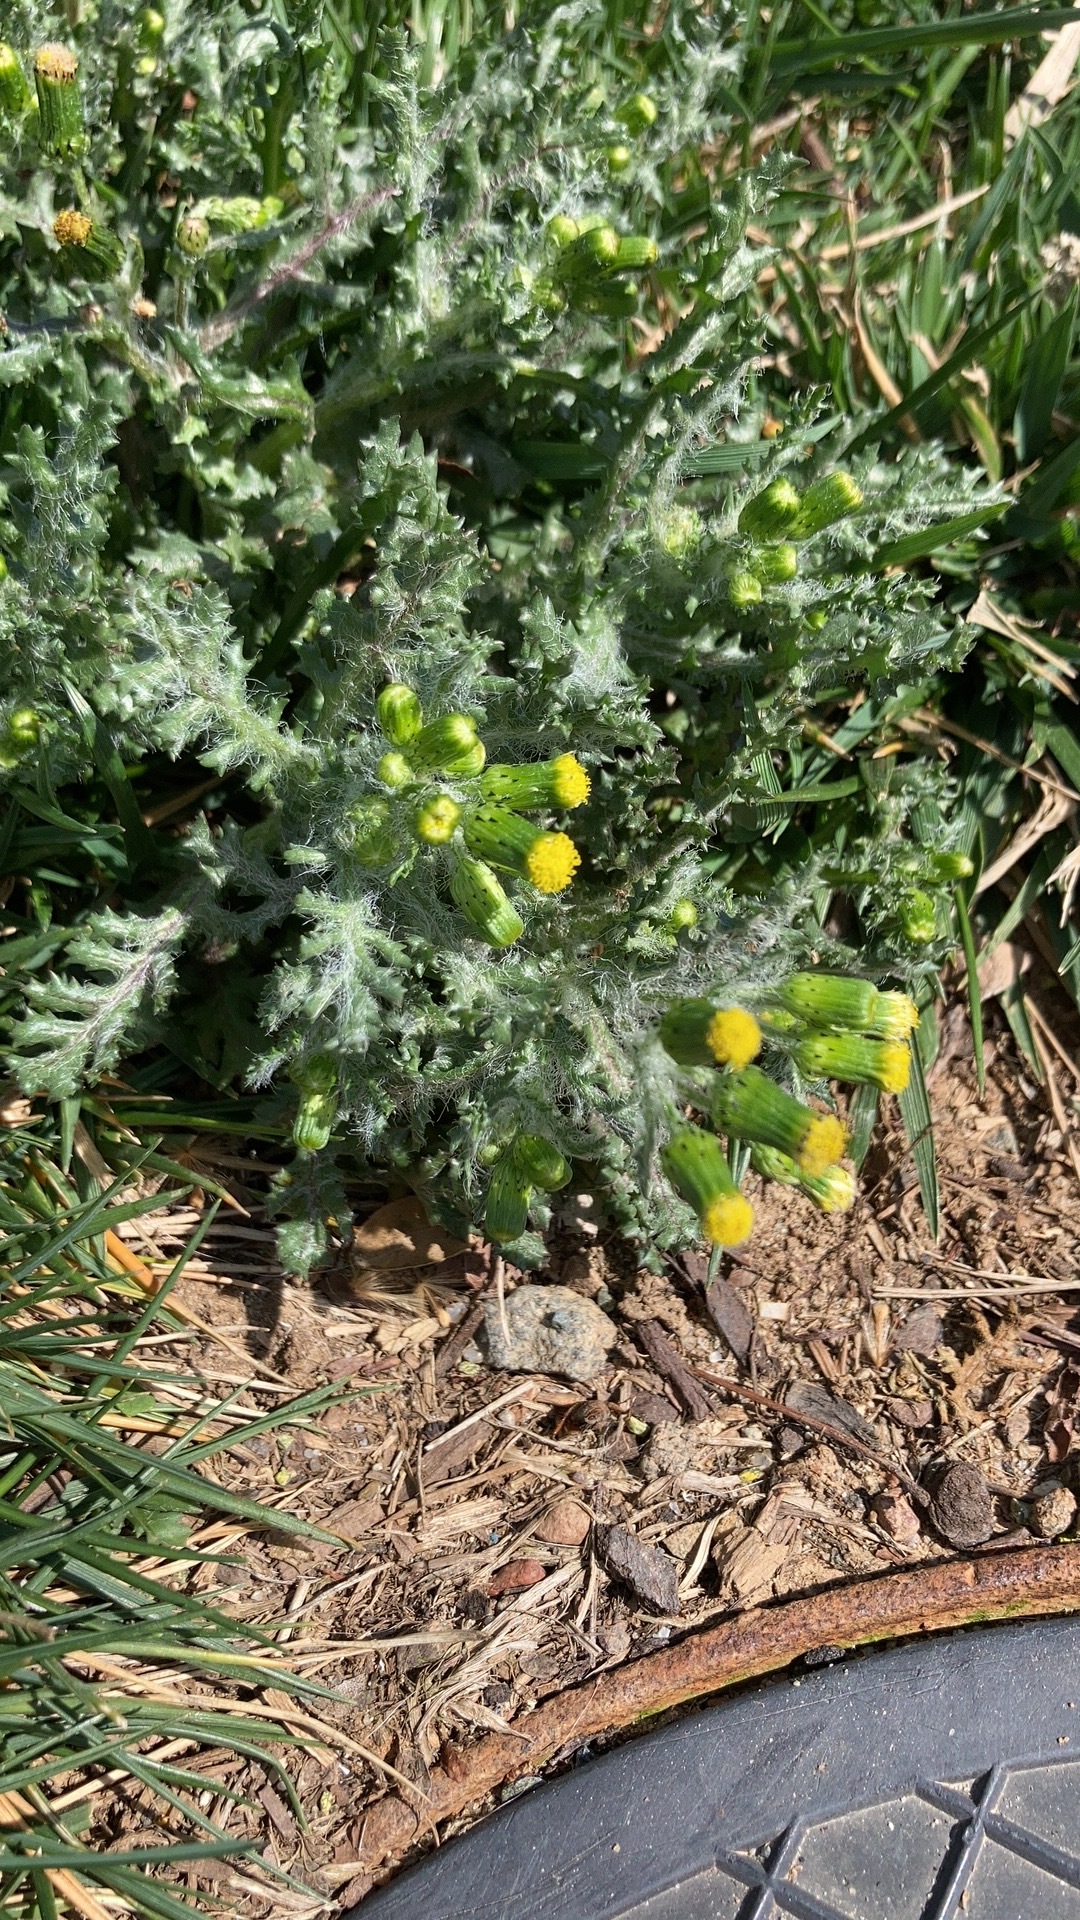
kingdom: Plantae
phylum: Tracheophyta
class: Magnoliopsida
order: Asterales
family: Asteraceae
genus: Senecio
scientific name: Senecio vulgaris
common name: Old-man-in-the-spring
